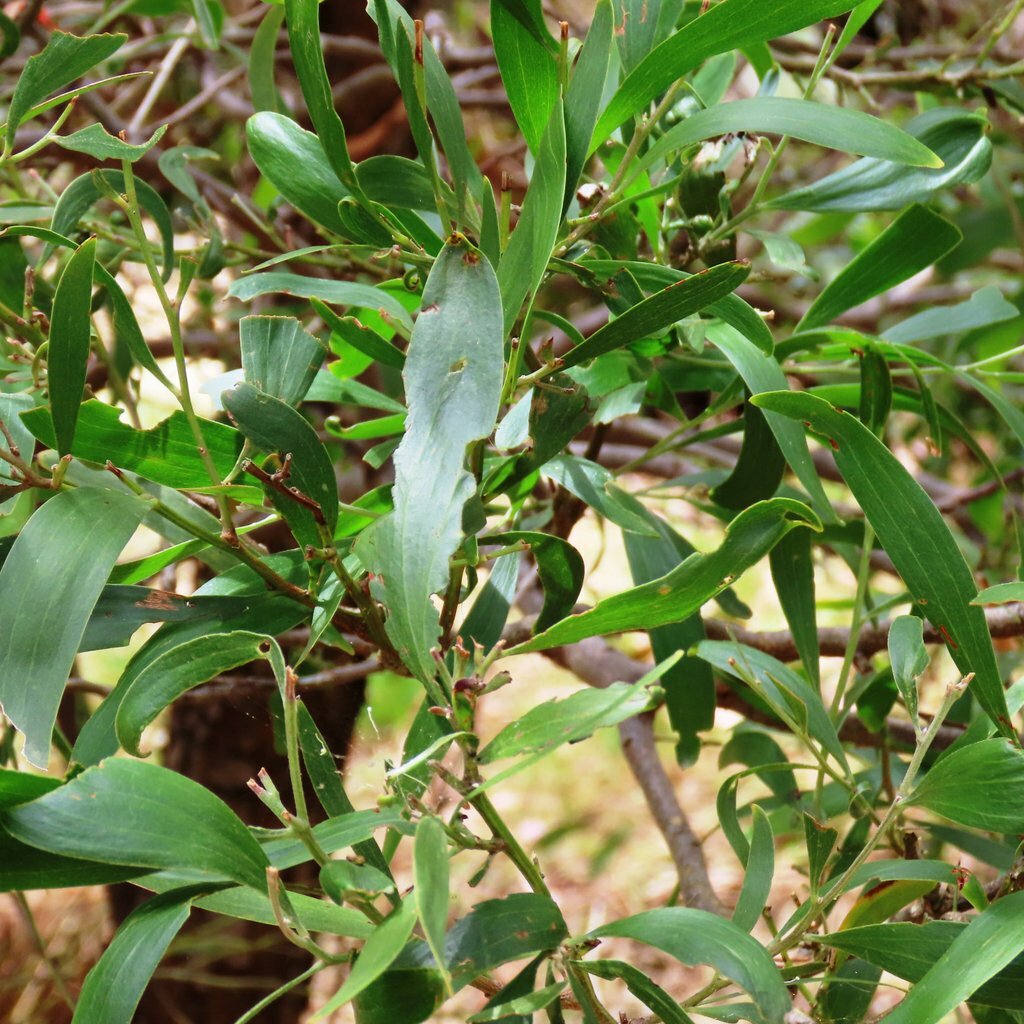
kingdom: Plantae
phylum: Tracheophyta
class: Magnoliopsida
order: Fabales
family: Fabaceae
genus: Acacia
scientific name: Acacia melanoxylon
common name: Blackwood
